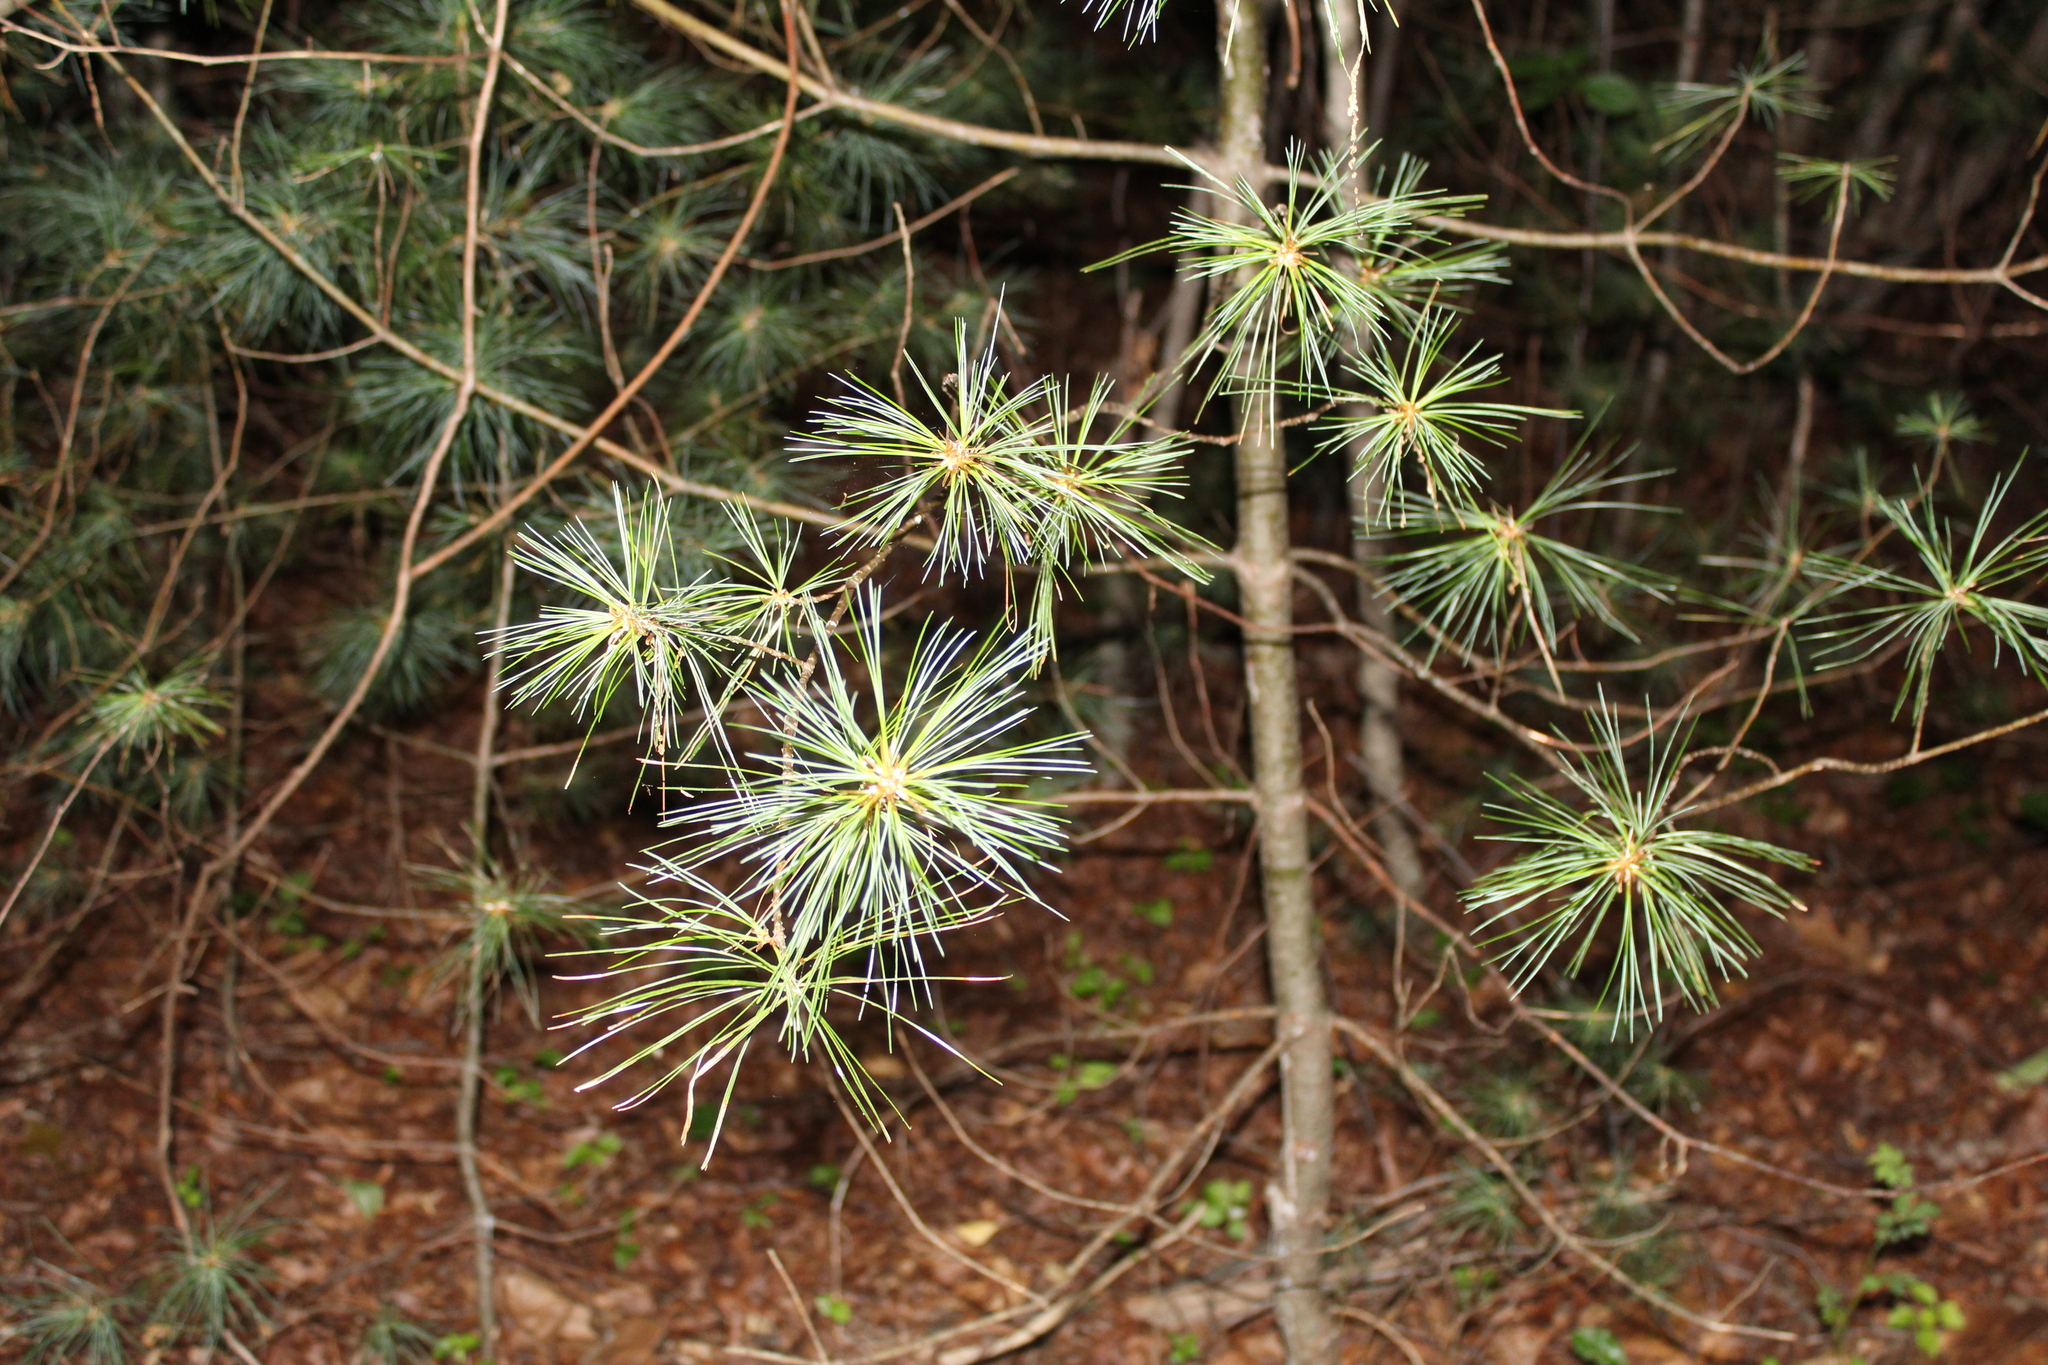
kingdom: Plantae
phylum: Tracheophyta
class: Pinopsida
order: Pinales
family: Pinaceae
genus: Pinus
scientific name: Pinus strobus
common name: Weymouth pine
